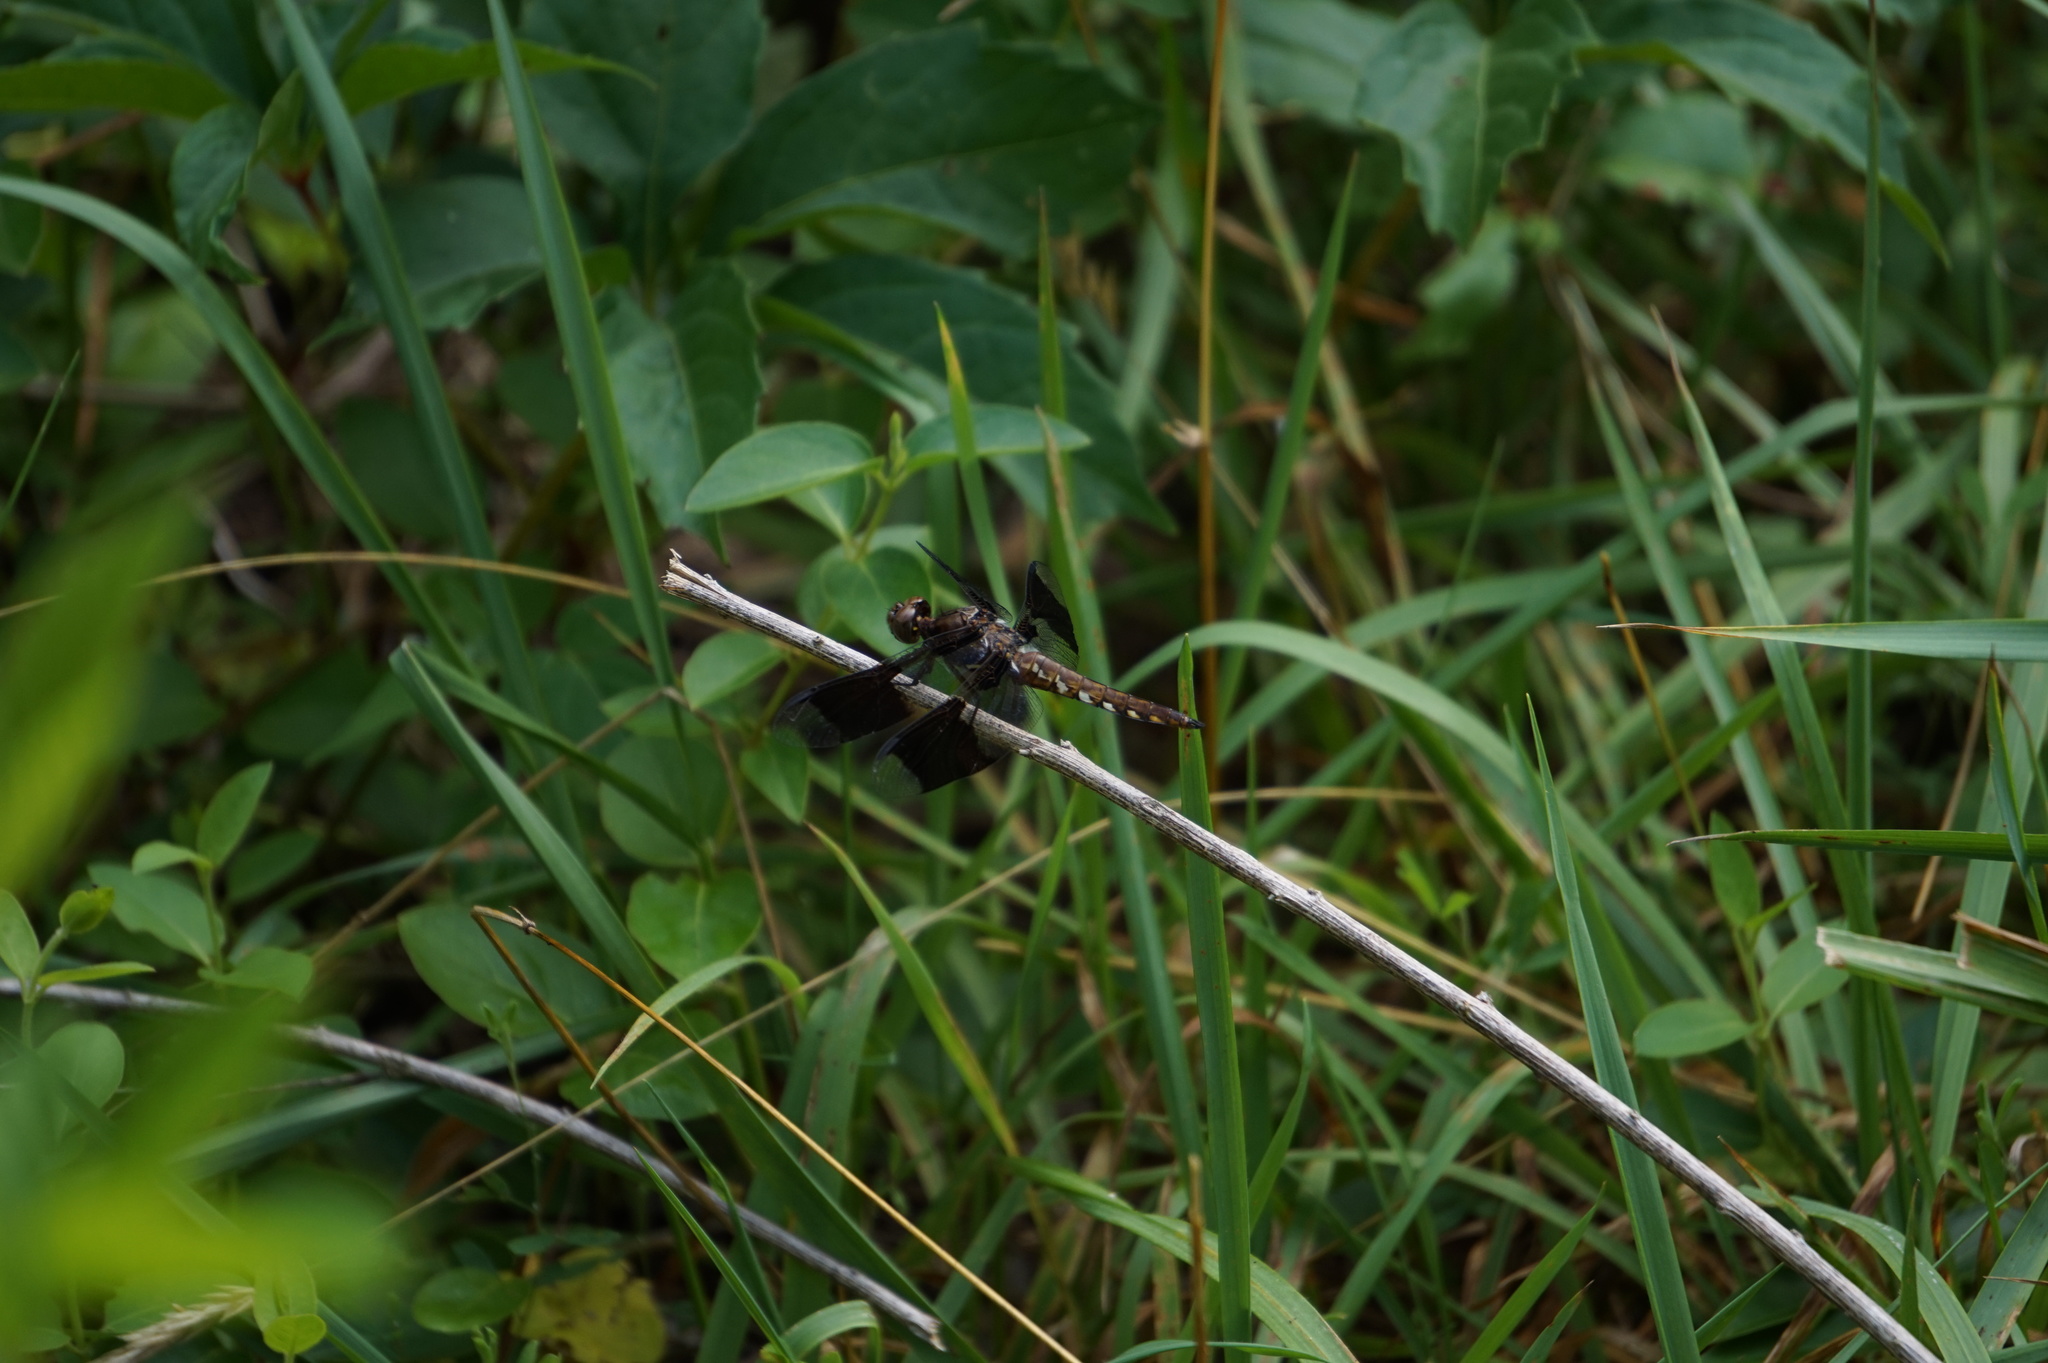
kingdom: Animalia
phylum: Arthropoda
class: Insecta
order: Odonata
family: Libellulidae
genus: Plathemis
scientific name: Plathemis lydia
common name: Common whitetail
